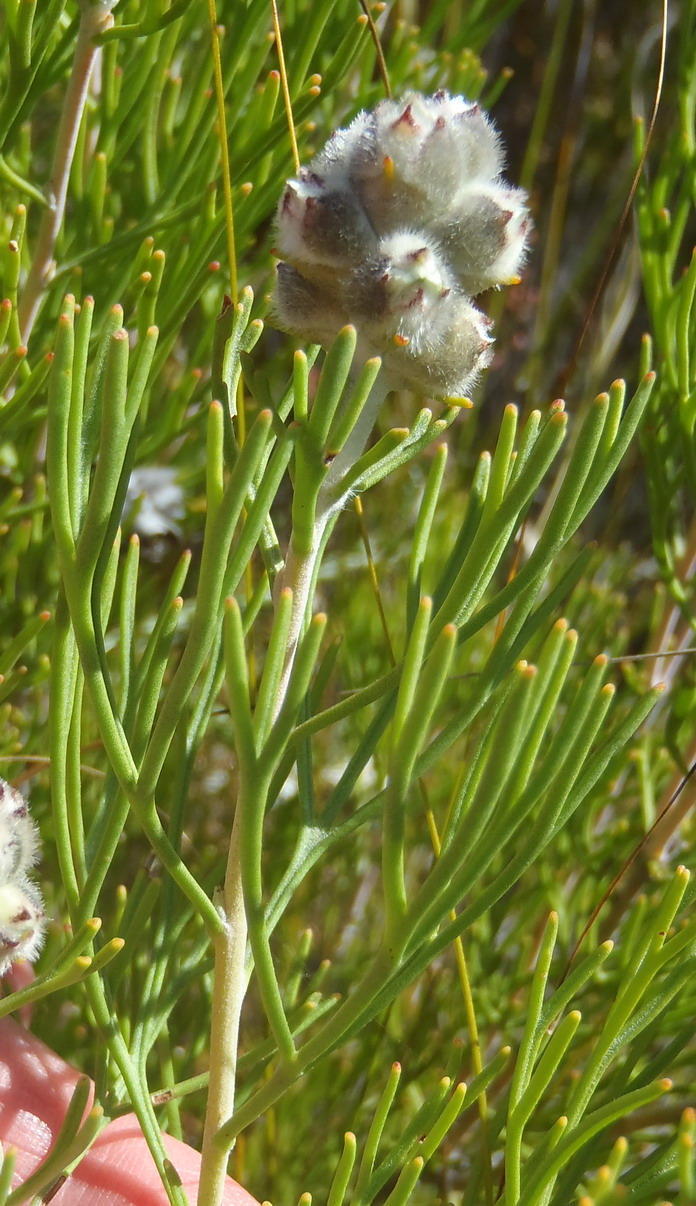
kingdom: Plantae
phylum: Tracheophyta
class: Magnoliopsida
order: Proteales
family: Proteaceae
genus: Paranomus
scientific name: Paranomus dregei
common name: Scented sceptre
